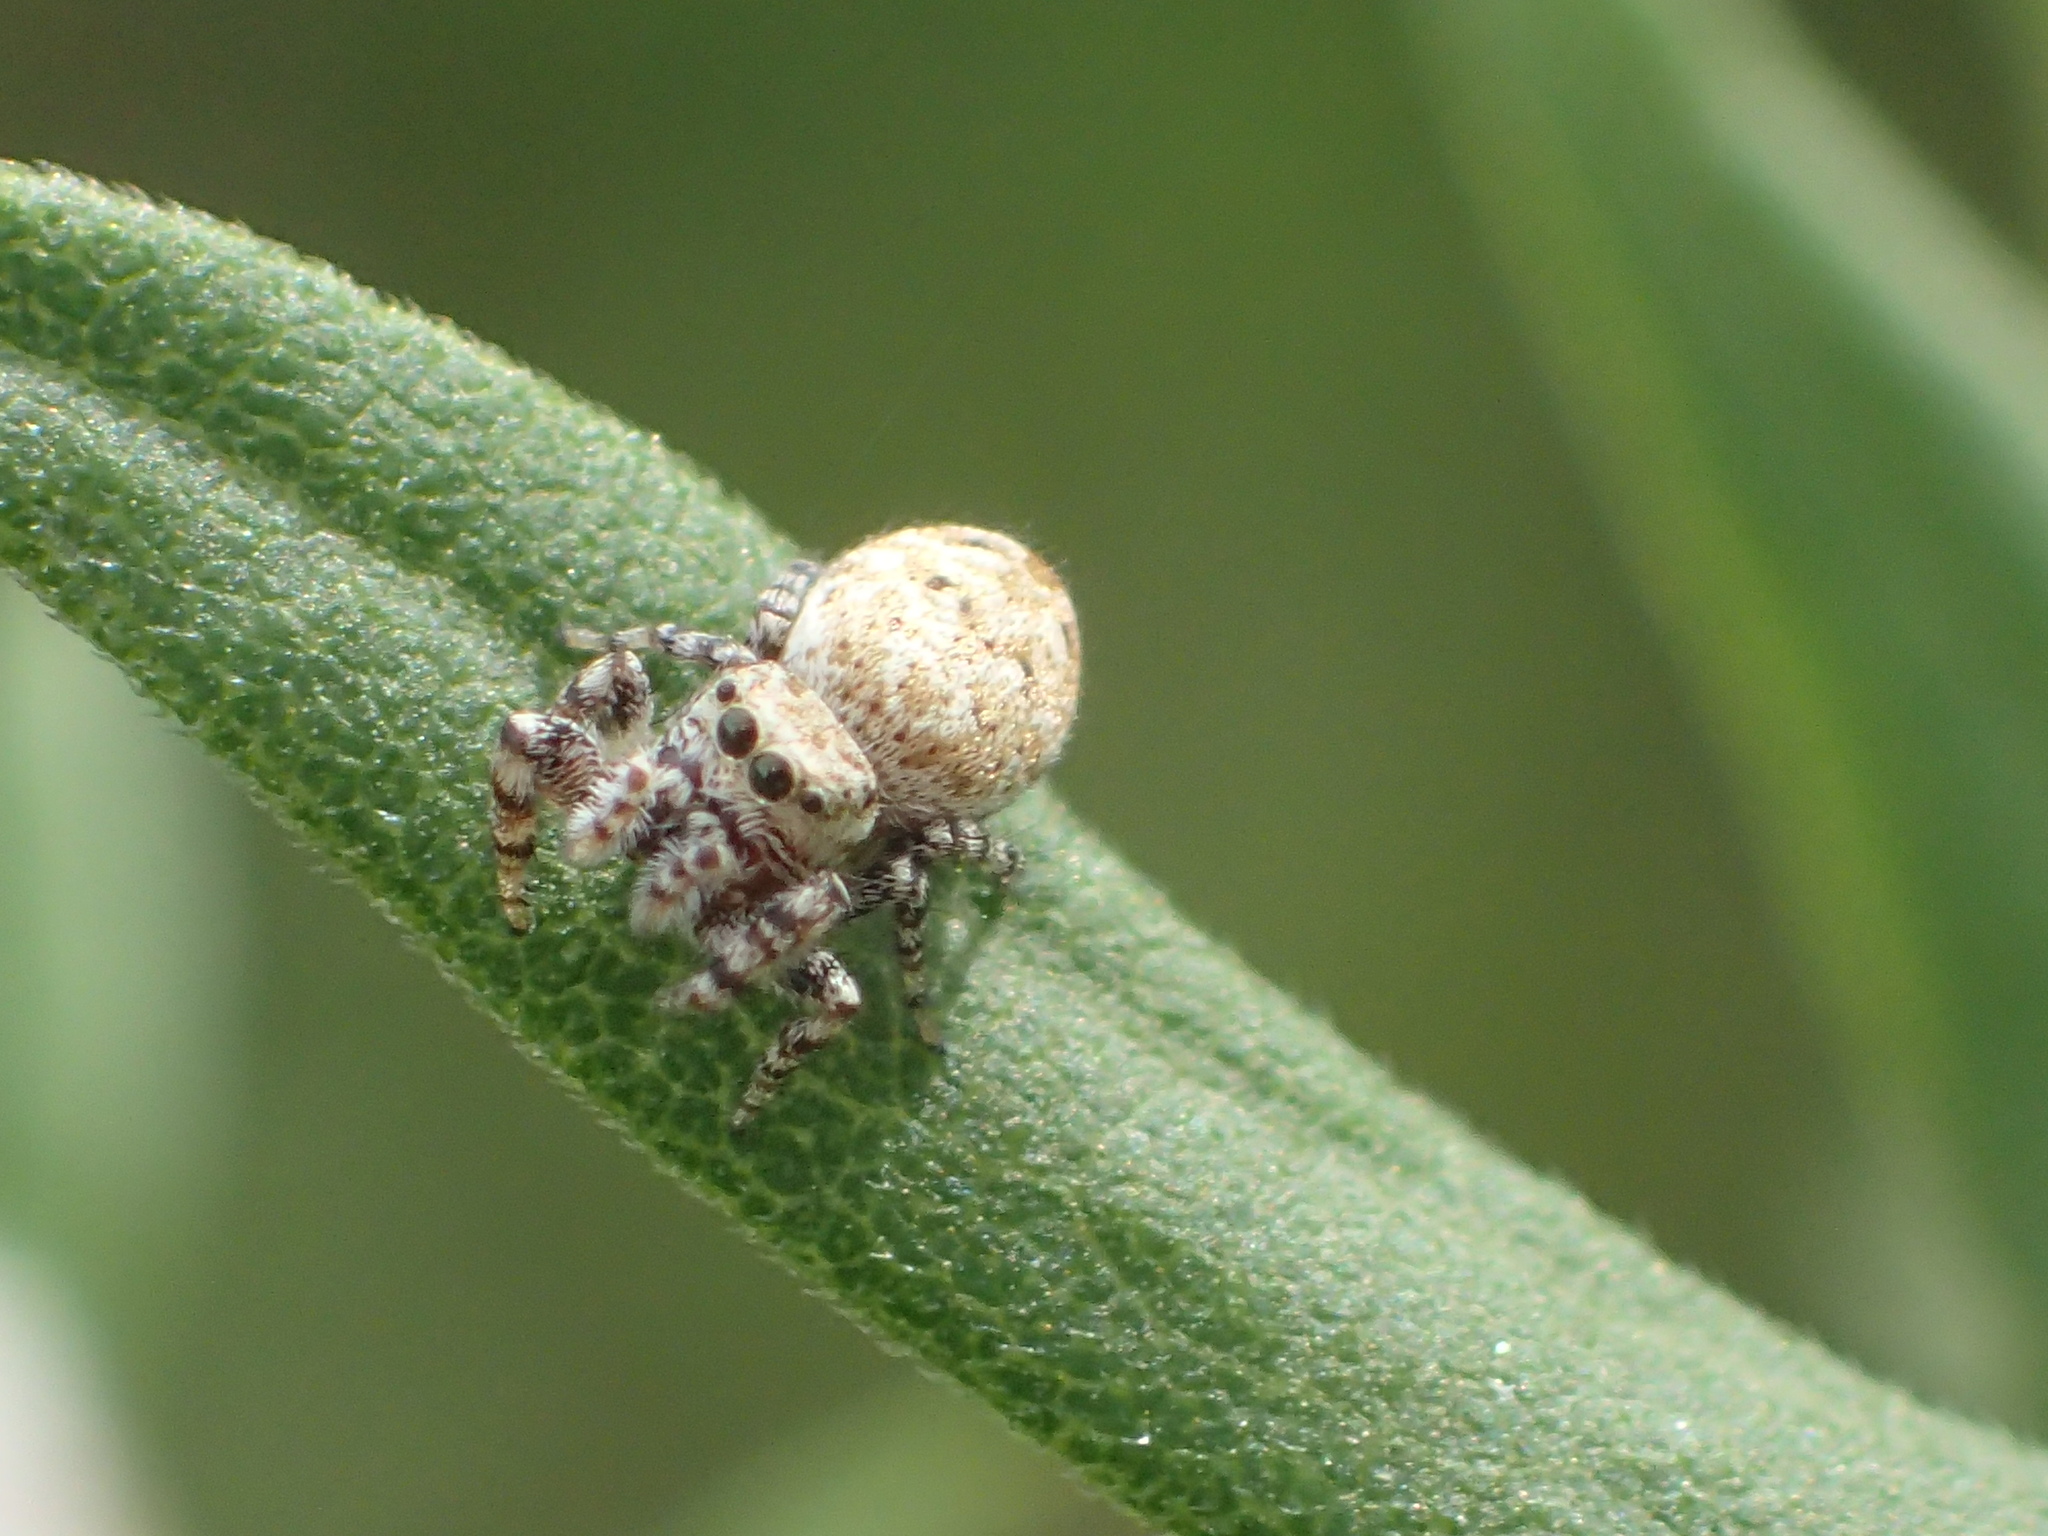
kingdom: Animalia
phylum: Arthropoda
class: Arachnida
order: Araneae
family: Salticidae
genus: Pelegrina
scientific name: Pelegrina galathea
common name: Jumping spiders
